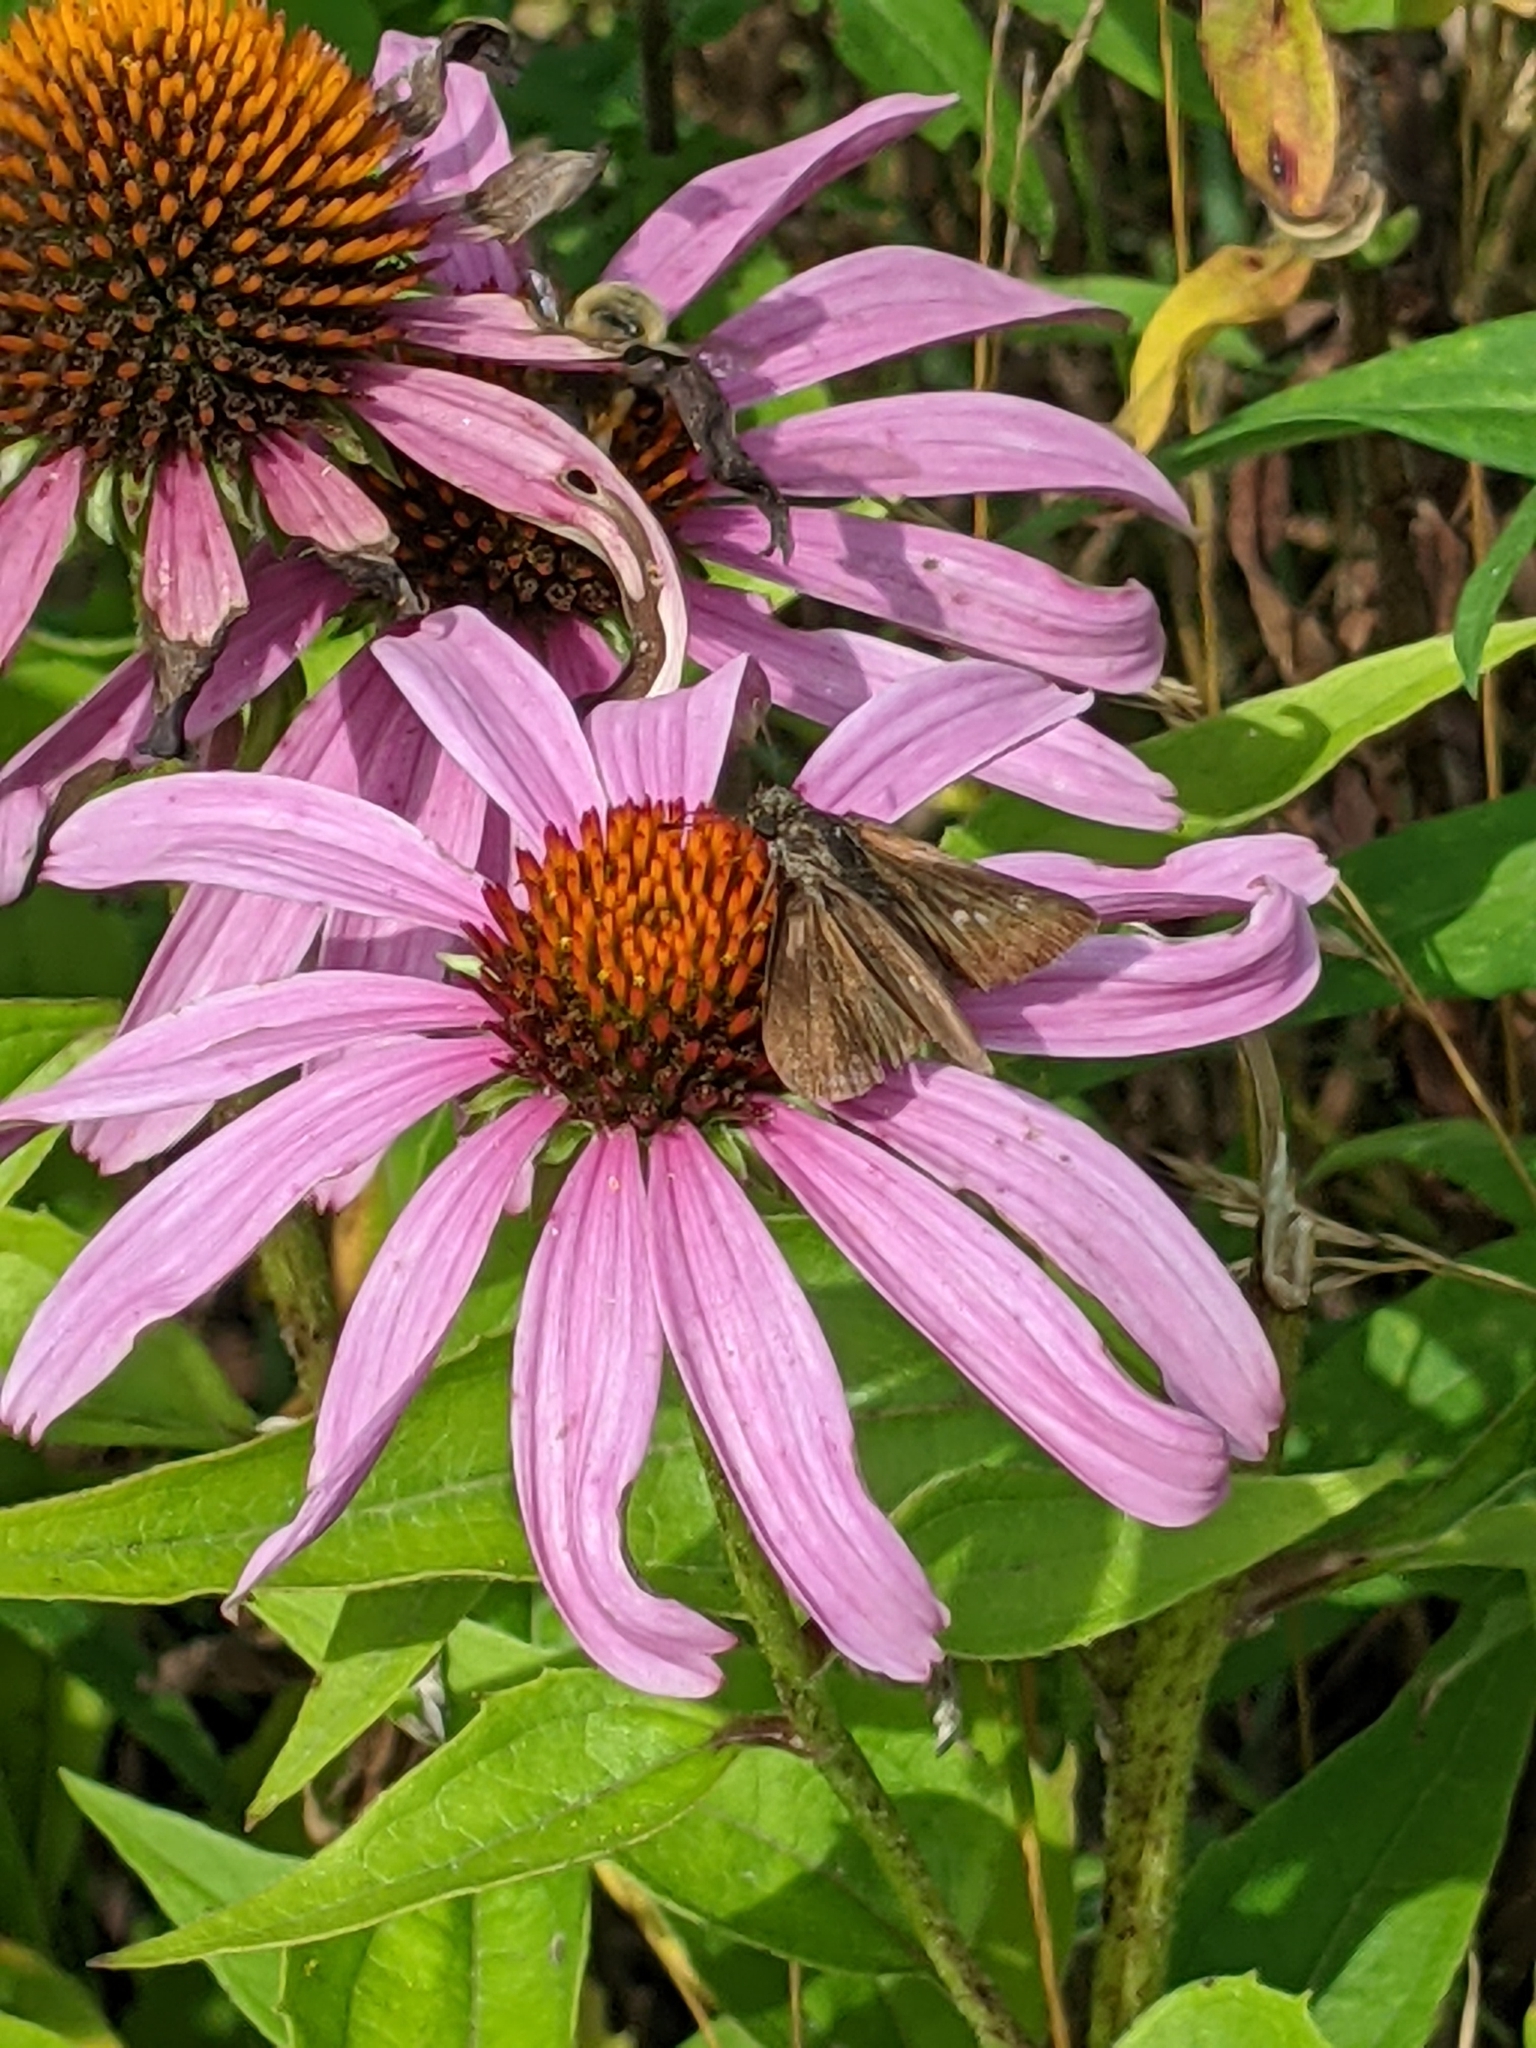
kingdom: Animalia
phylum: Arthropoda
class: Insecta
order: Lepidoptera
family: Hesperiidae
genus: Euphyes
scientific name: Euphyes vestris
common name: Dun skipper
